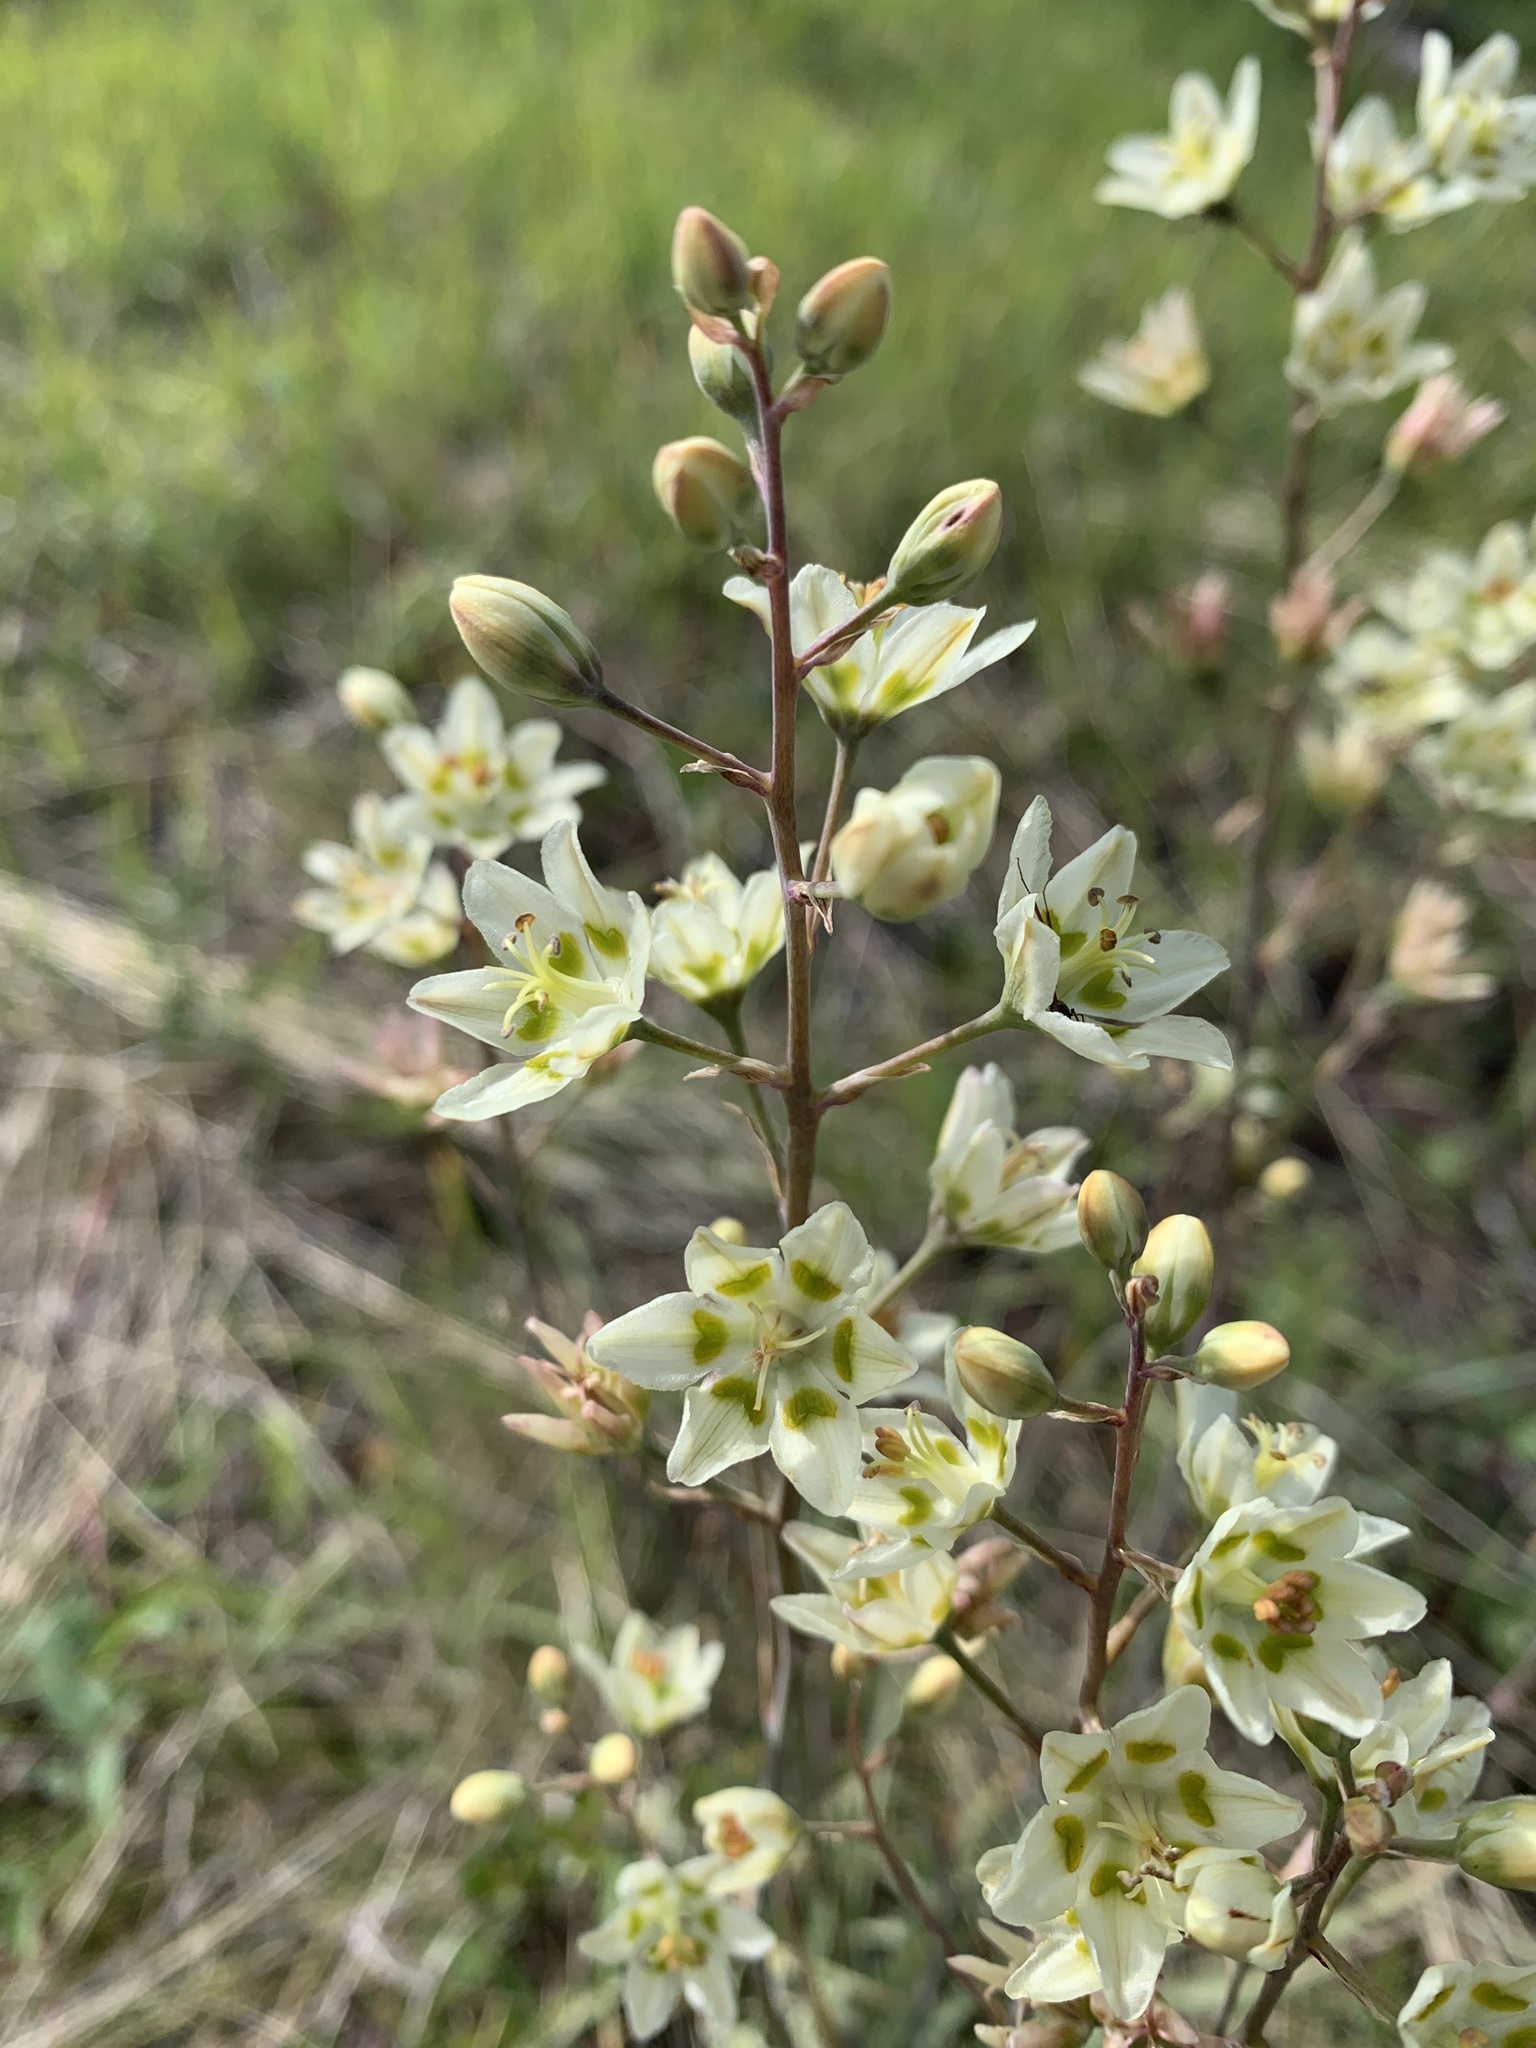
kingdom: Plantae
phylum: Tracheophyta
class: Liliopsida
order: Liliales
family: Melanthiaceae
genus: Anticlea
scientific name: Anticlea elegans
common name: Mountain death camas
